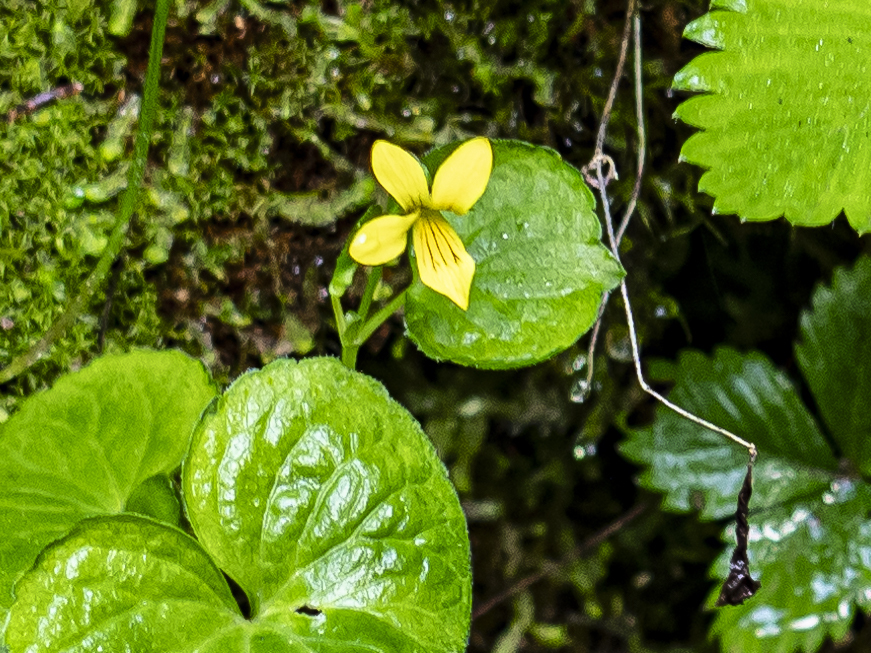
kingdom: Plantae
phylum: Tracheophyta
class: Magnoliopsida
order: Malpighiales
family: Violaceae
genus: Viola
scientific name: Viola biflora
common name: Alpine yellow violet
